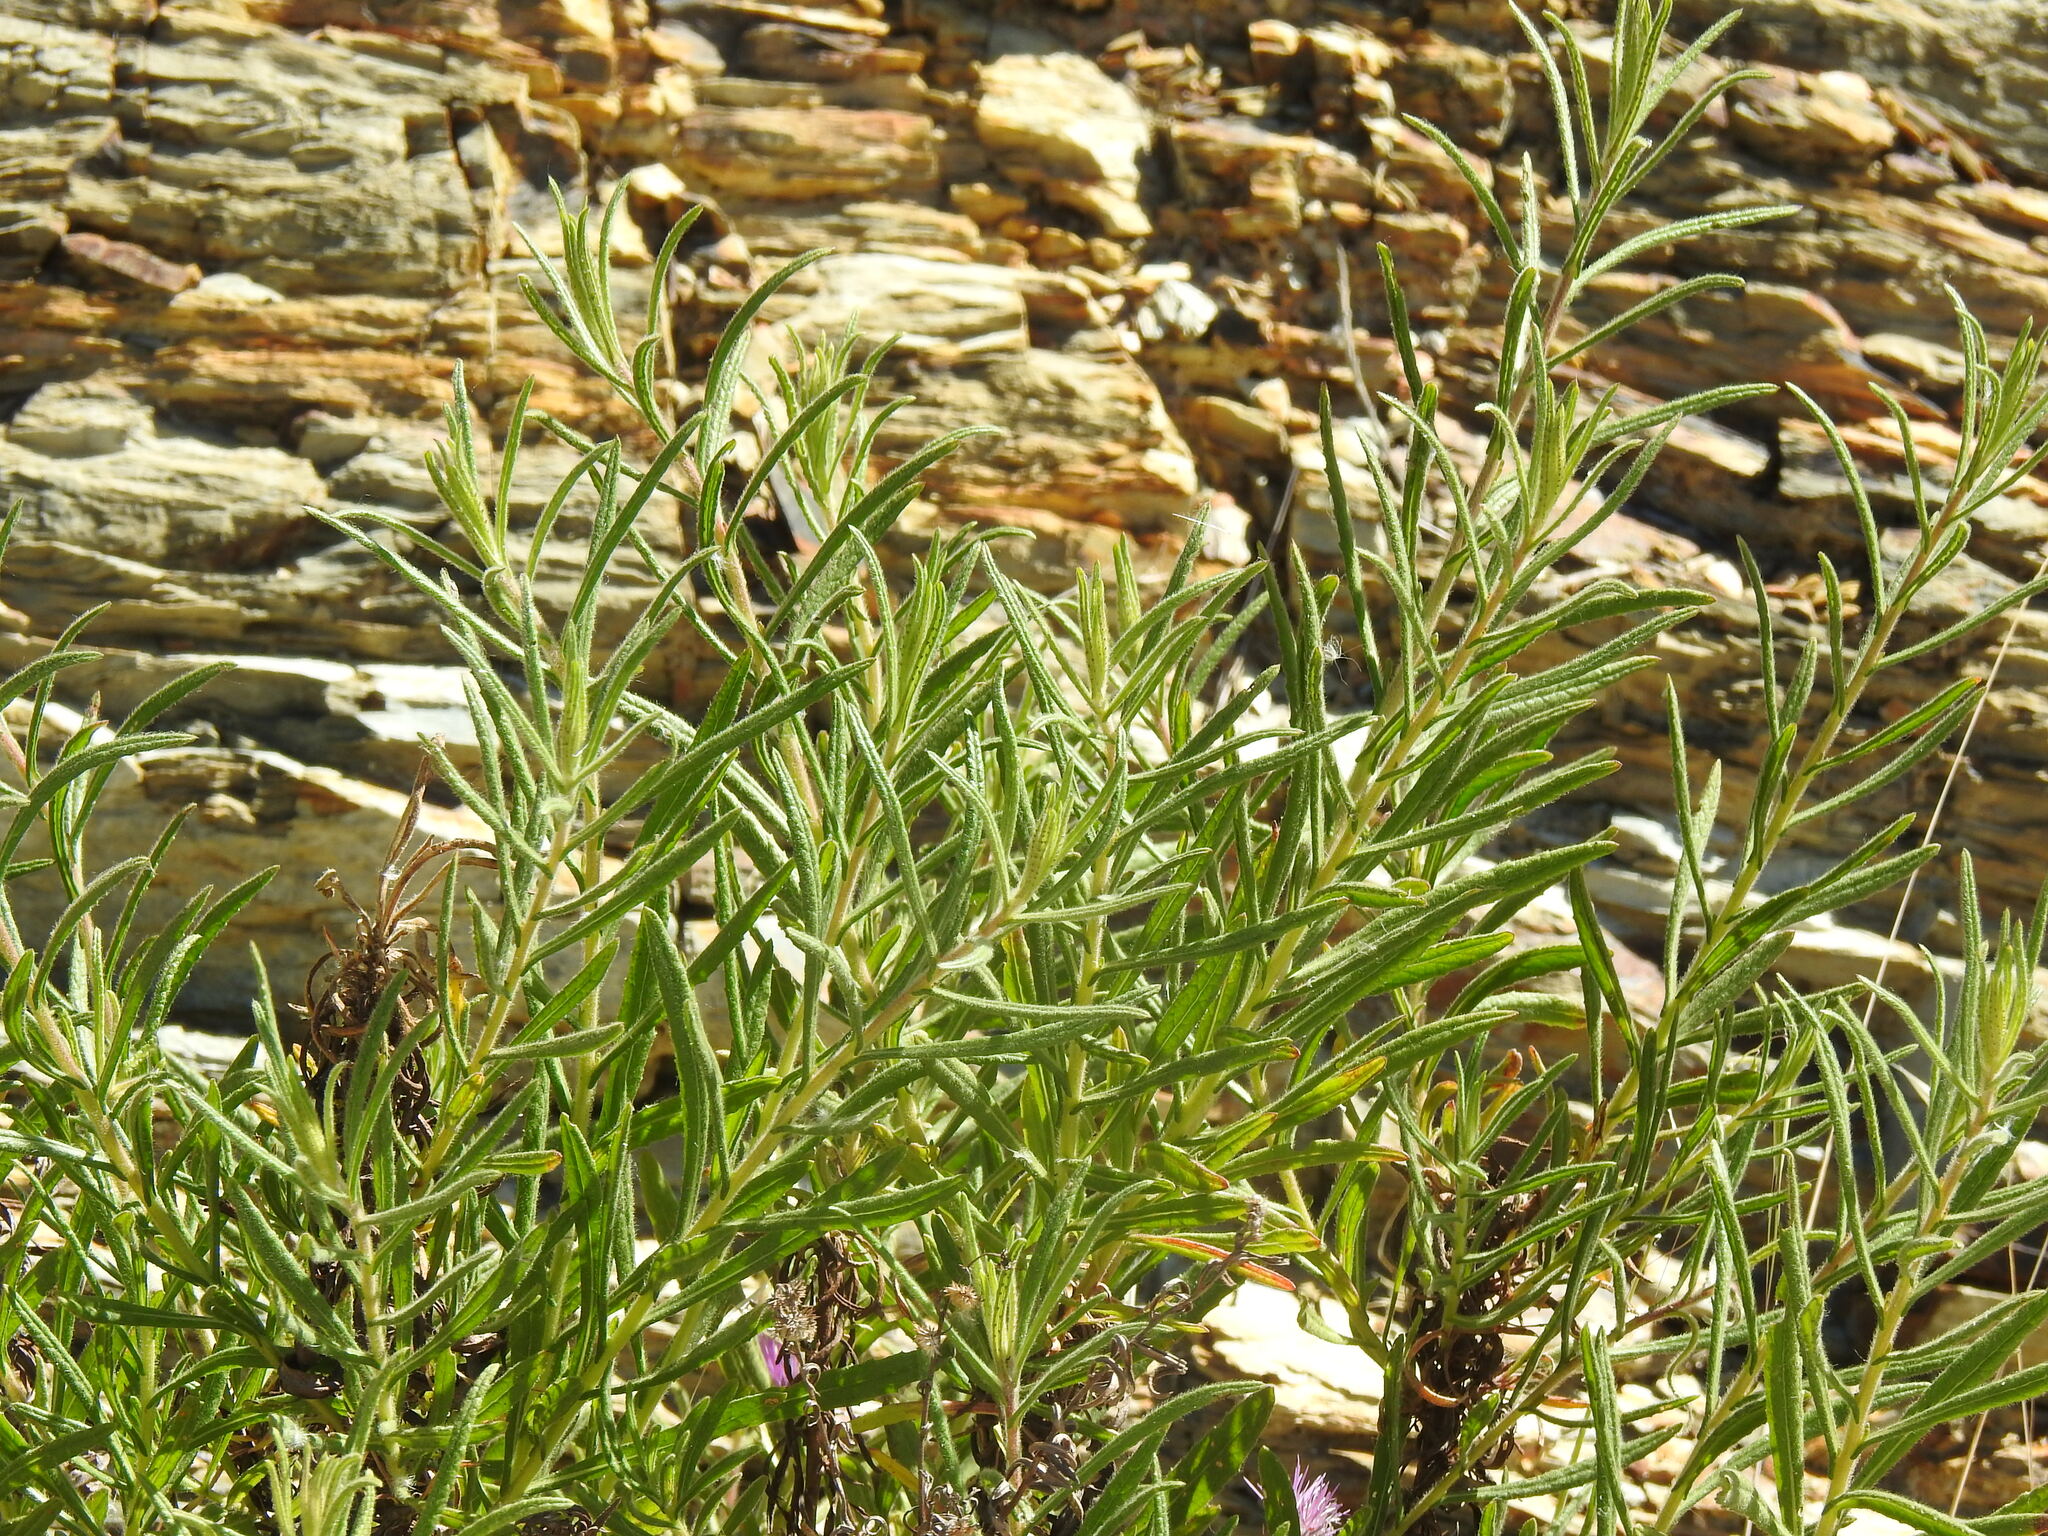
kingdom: Plantae
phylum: Tracheophyta
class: Magnoliopsida
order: Asterales
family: Asteraceae
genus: Dittrichia
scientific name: Dittrichia viscosa
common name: Woody fleabane
